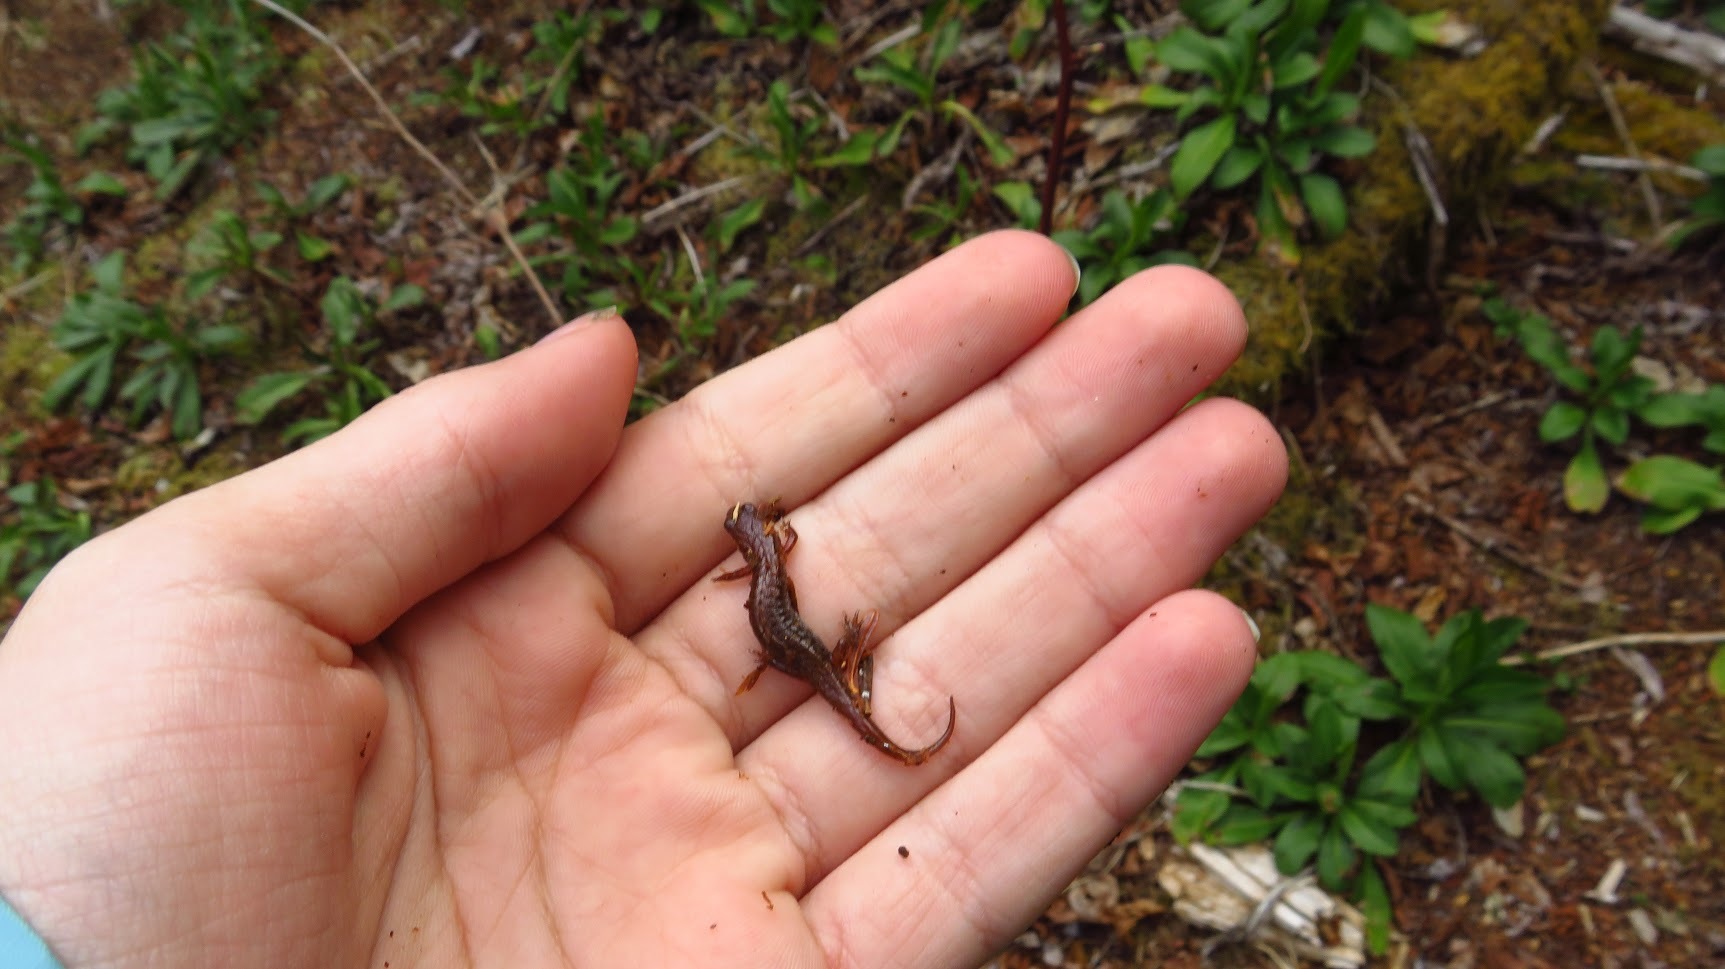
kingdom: Animalia
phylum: Chordata
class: Amphibia
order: Caudata
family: Plethodontidae
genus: Desmognathus
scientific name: Desmognathus wrighti
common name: Pygmy salamander
